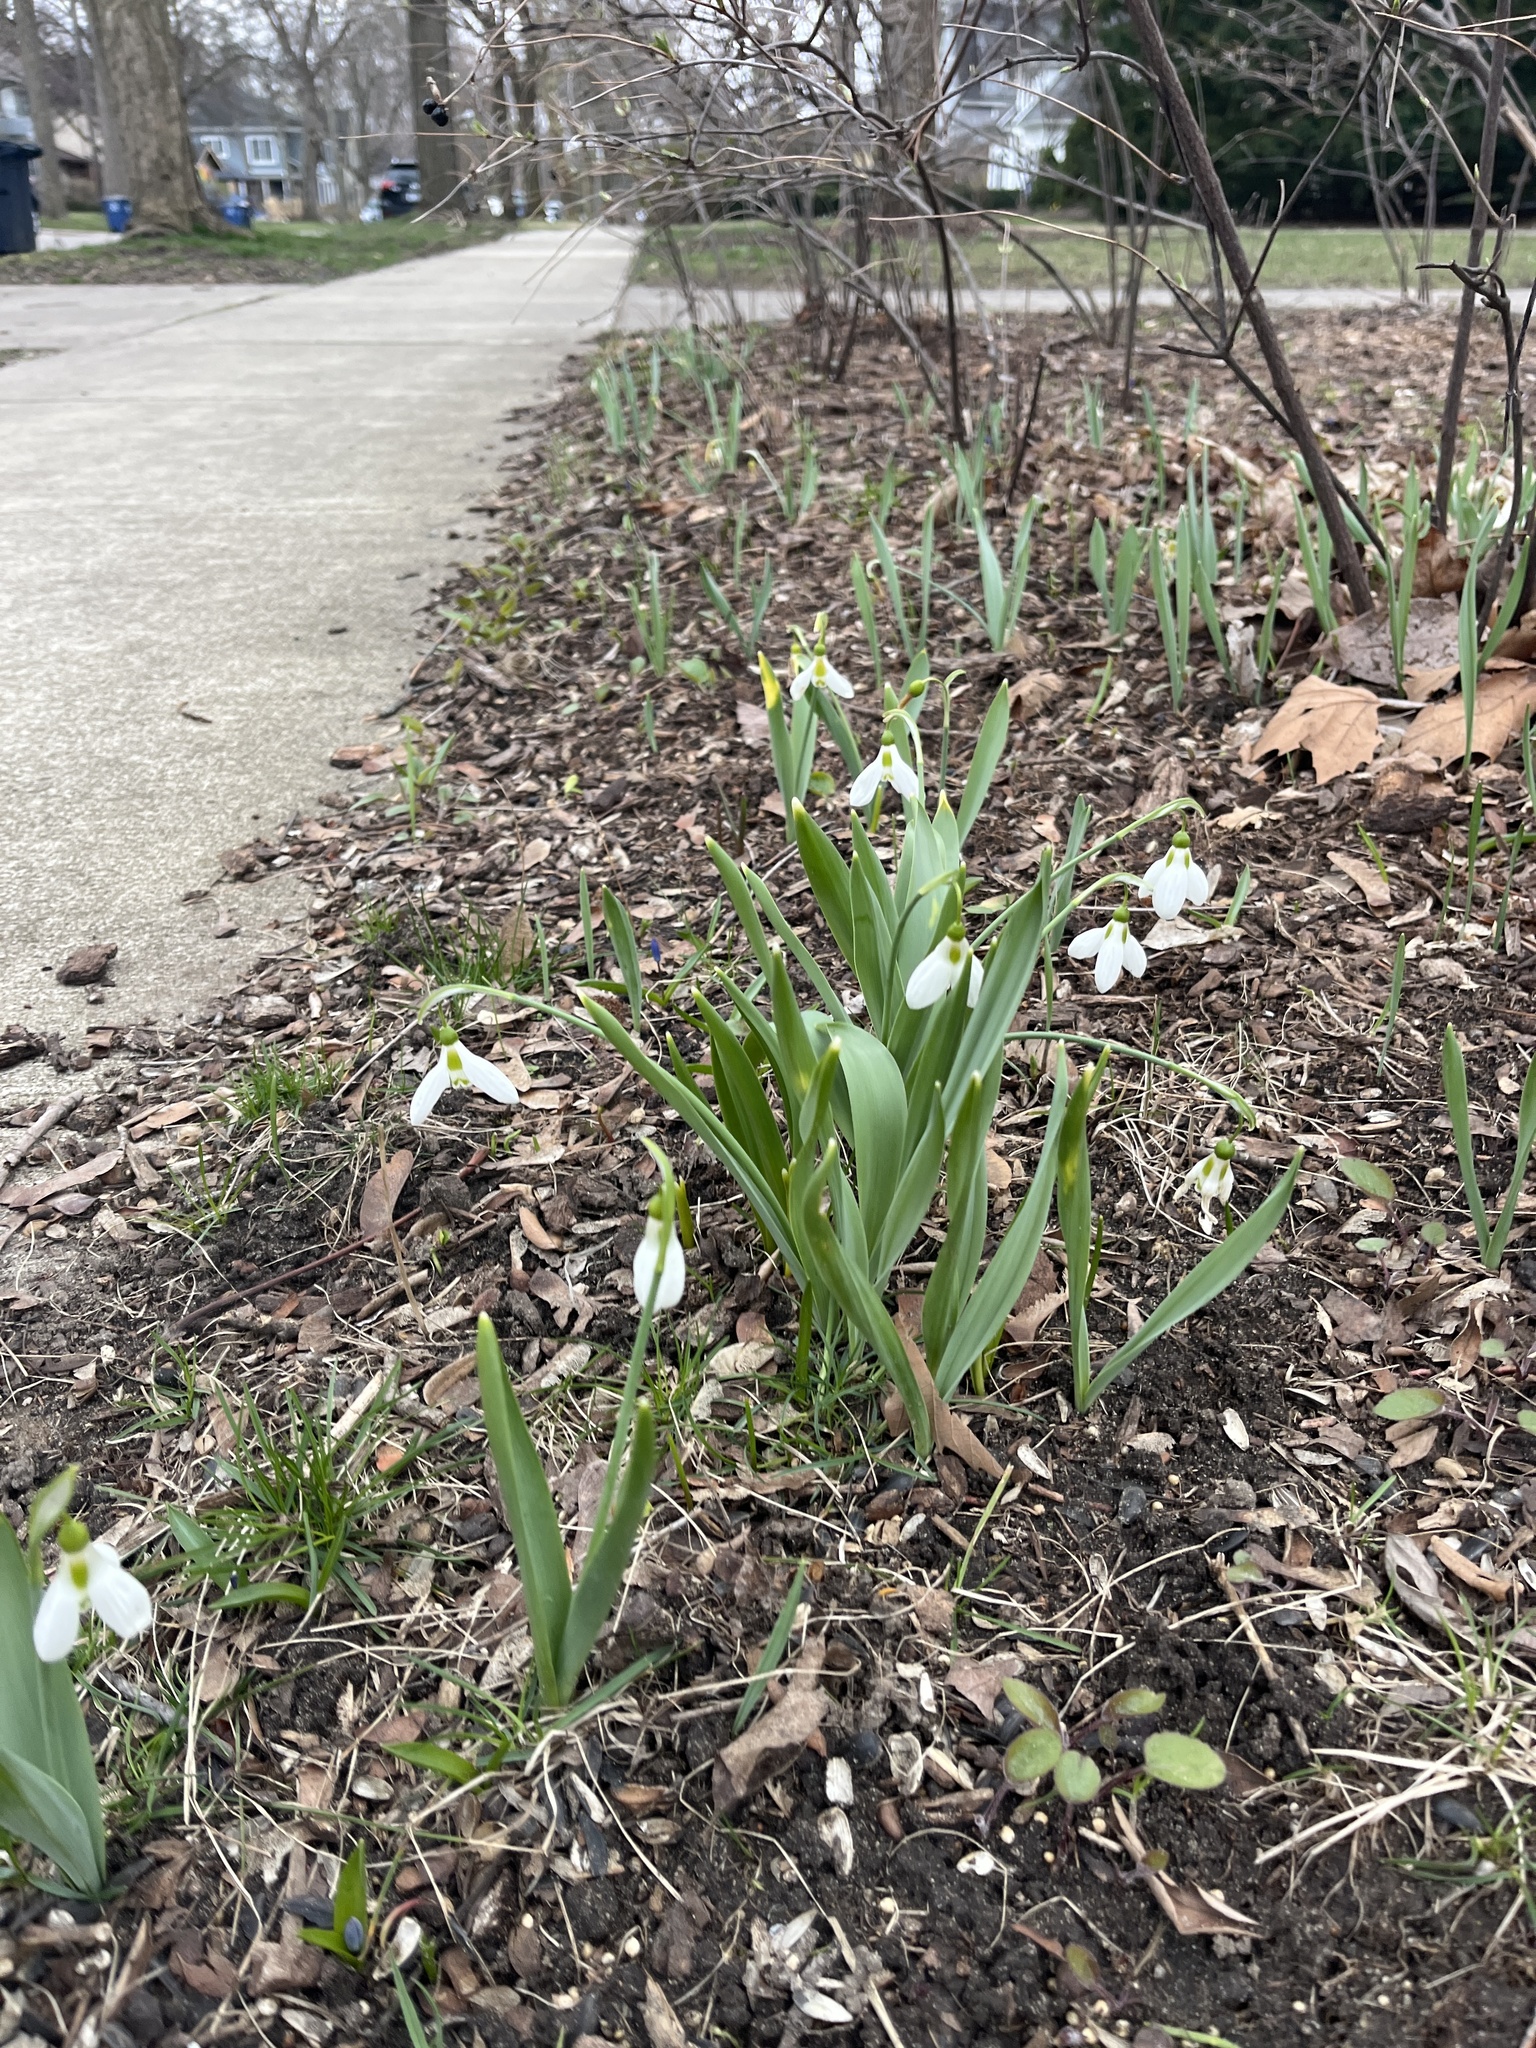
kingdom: Plantae
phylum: Tracheophyta
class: Liliopsida
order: Asparagales
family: Amaryllidaceae
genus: Galanthus
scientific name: Galanthus elwesii
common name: Greater snowdrop
